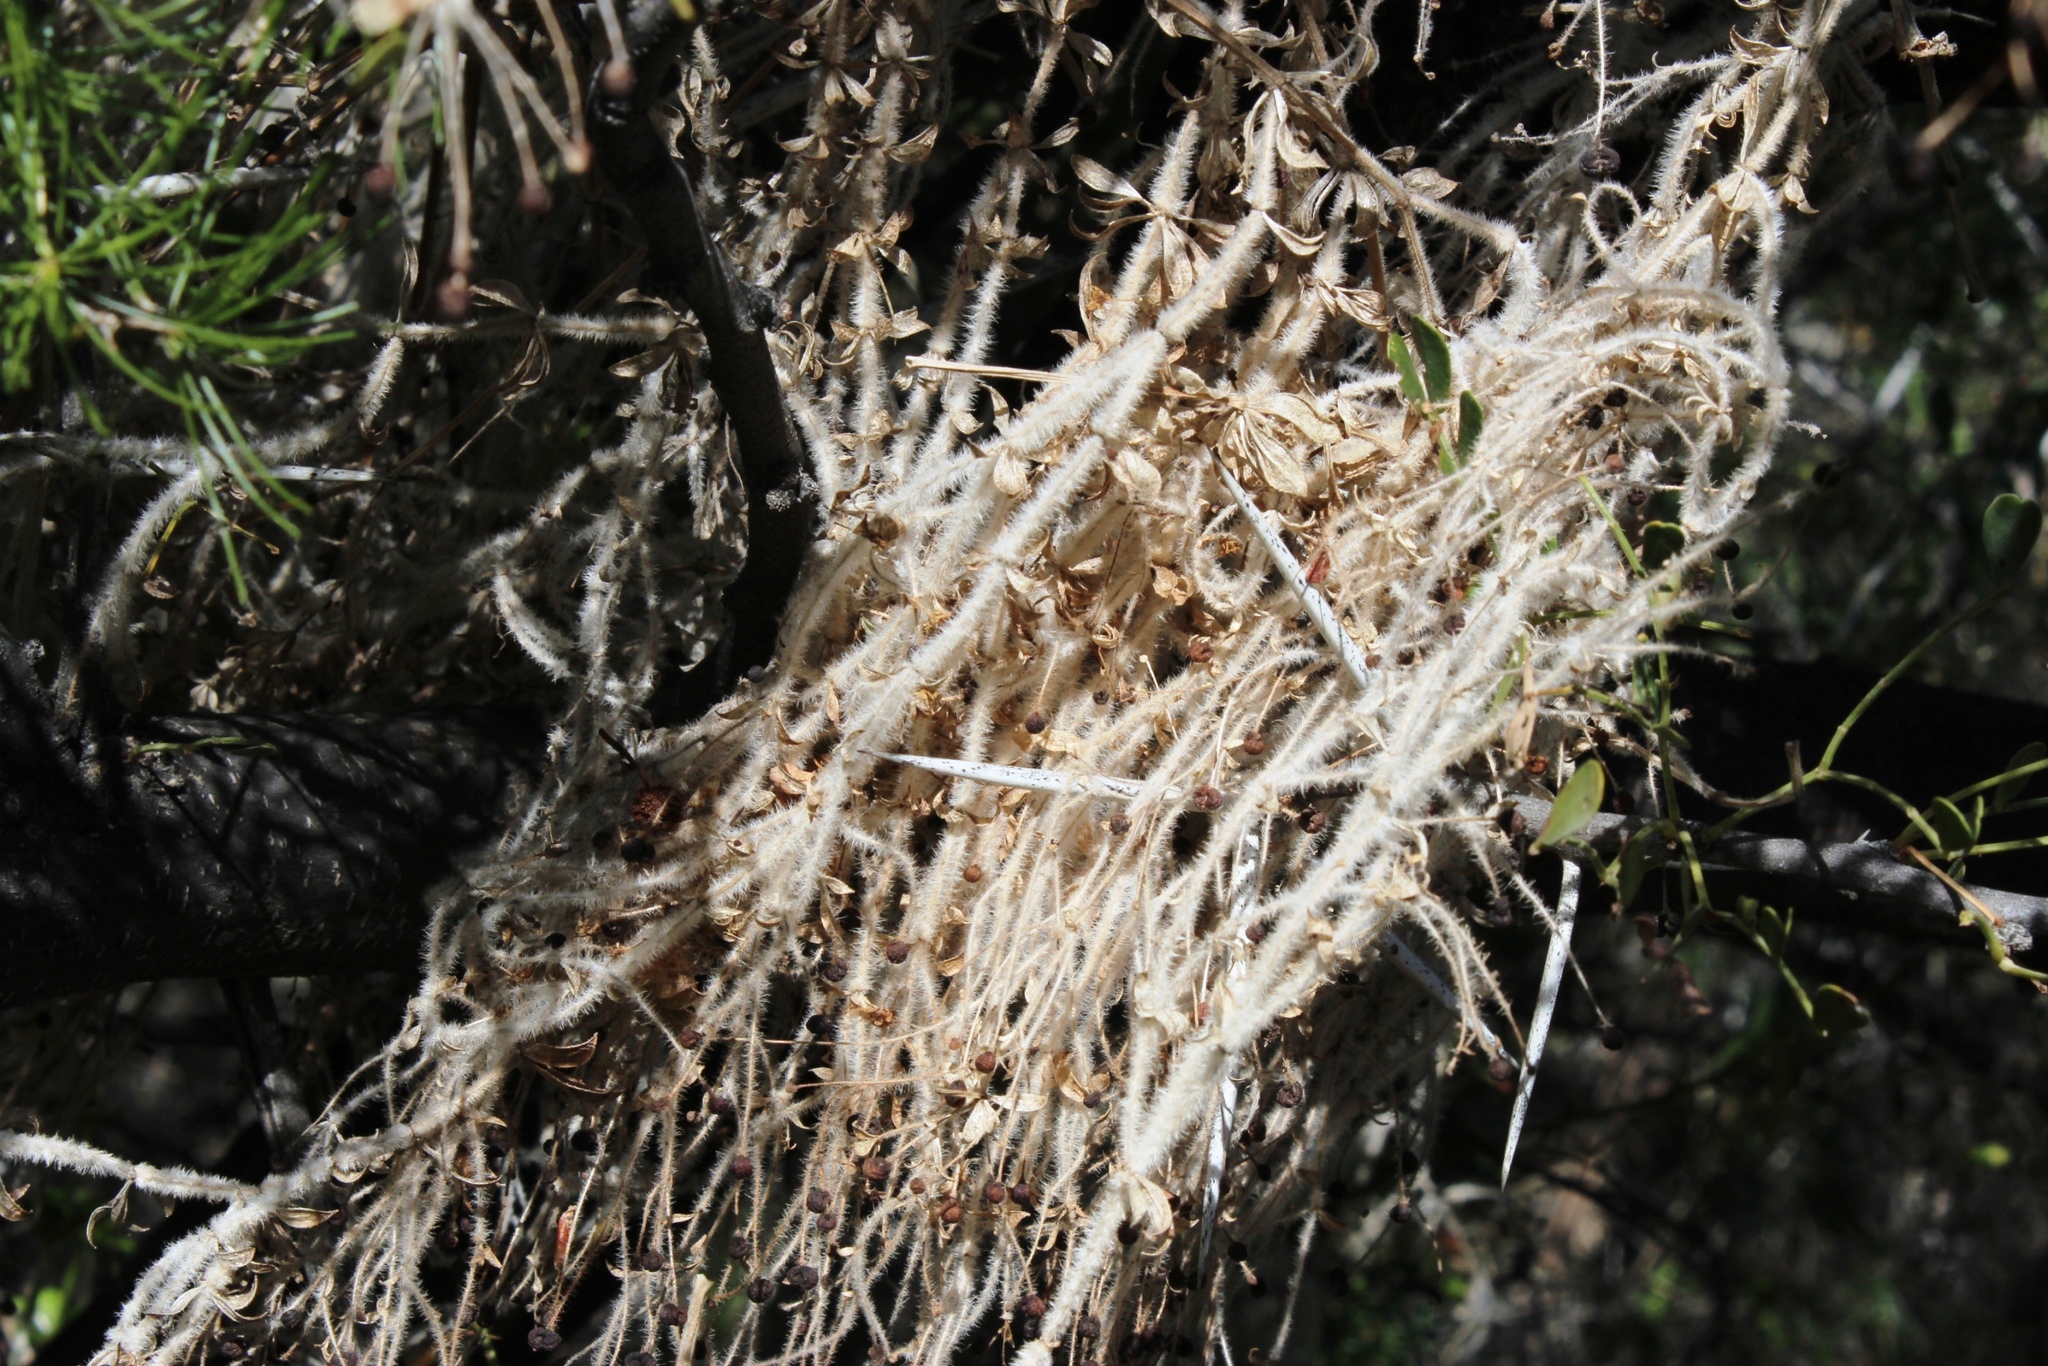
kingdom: Plantae
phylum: Tracheophyta
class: Magnoliopsida
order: Gentianales
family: Rubiaceae
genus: Galium
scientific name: Galium tomentosum
